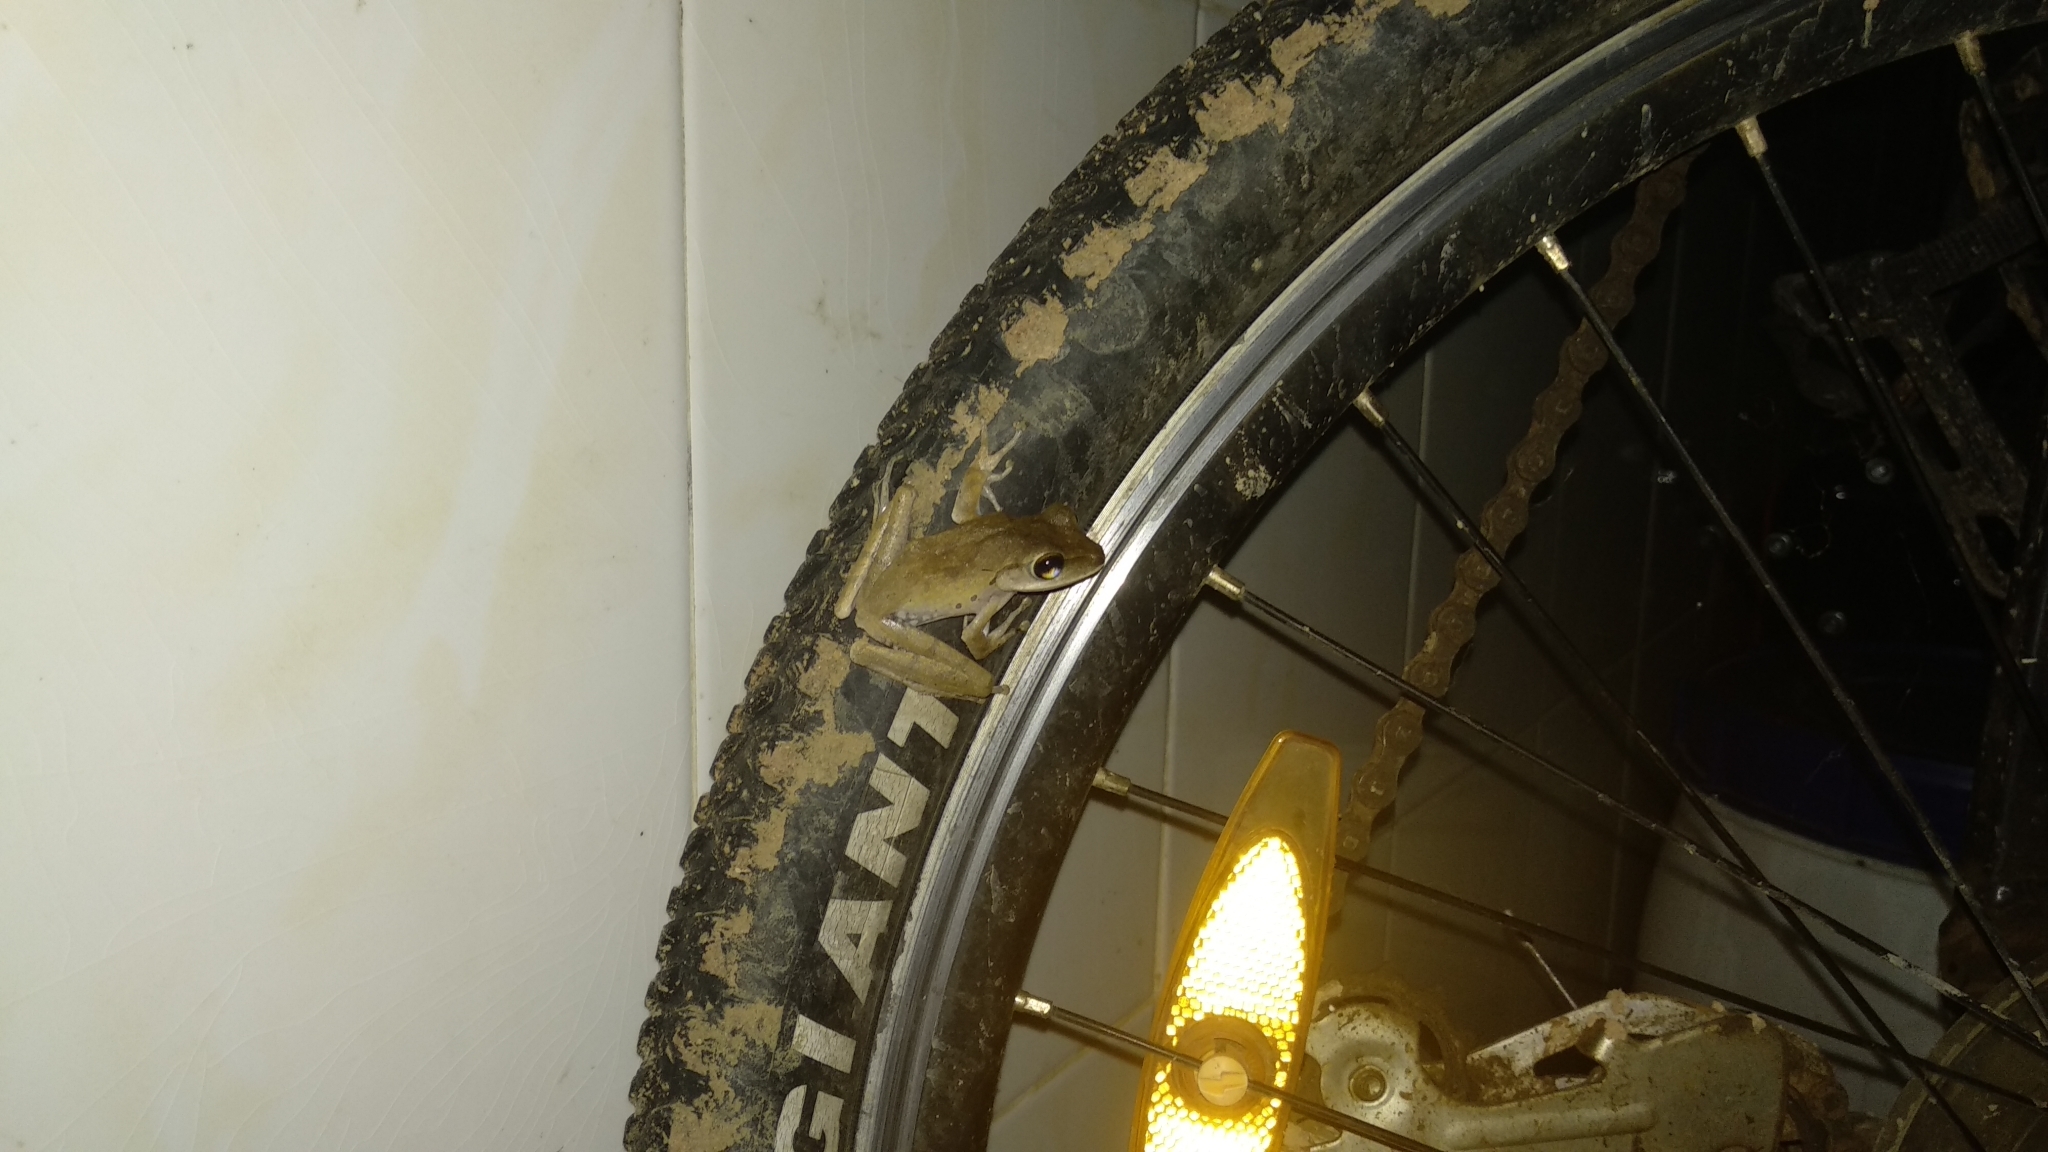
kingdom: Animalia
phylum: Chordata
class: Amphibia
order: Anura
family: Rhacophoridae
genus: Polypedates
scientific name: Polypedates megacephalus
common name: Hong kong whipping frog
